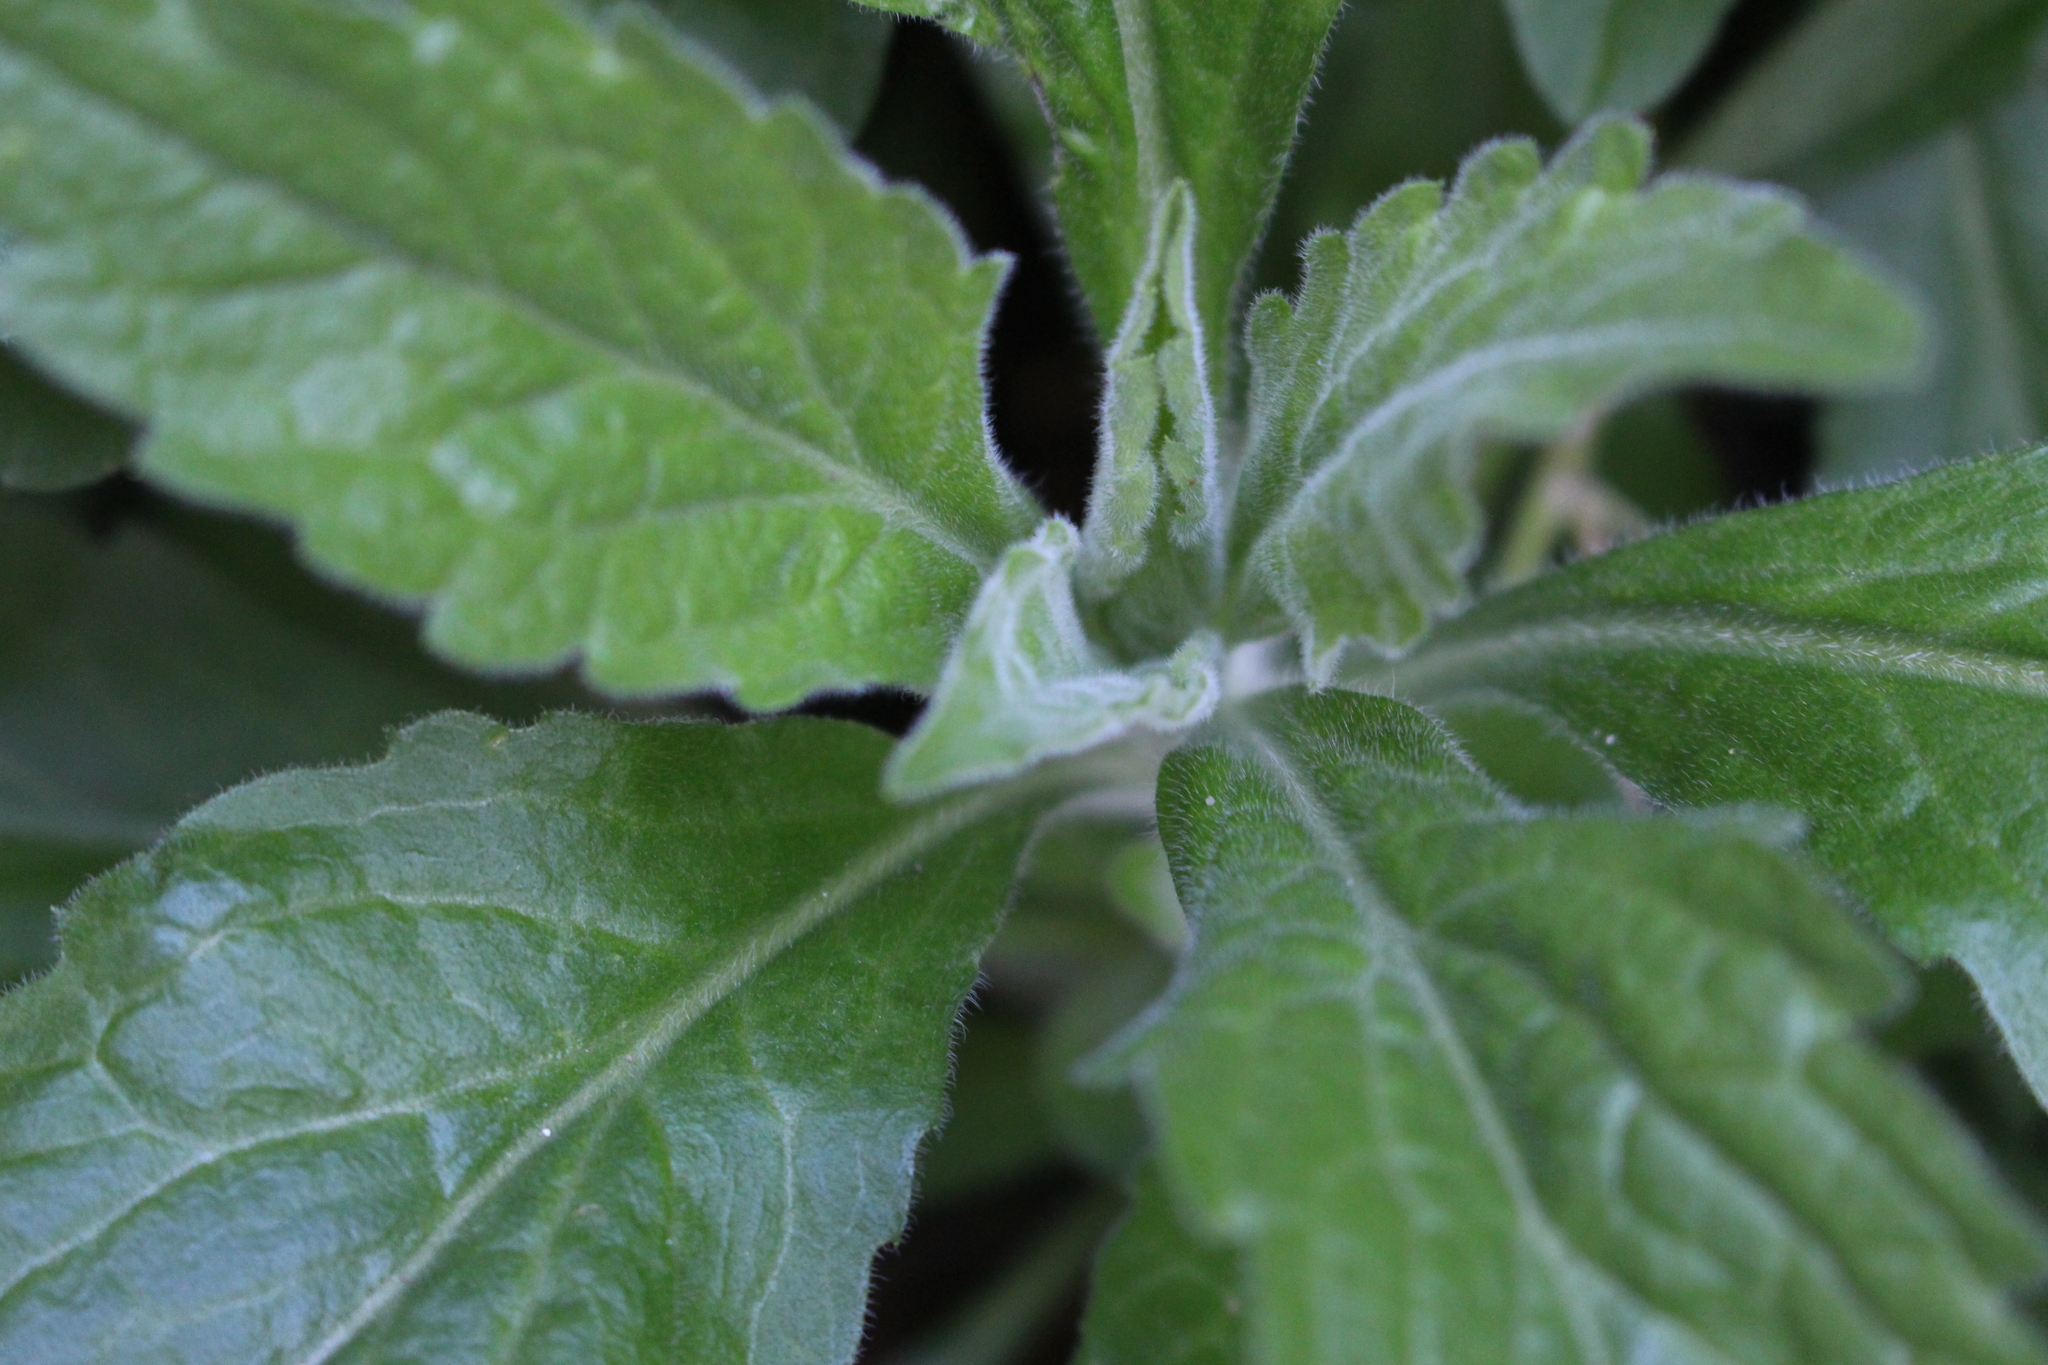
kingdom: Plantae
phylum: Tracheophyta
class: Magnoliopsida
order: Asterales
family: Asteraceae
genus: Erigeron
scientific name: Erigeron sumatrensis
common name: Daisy
